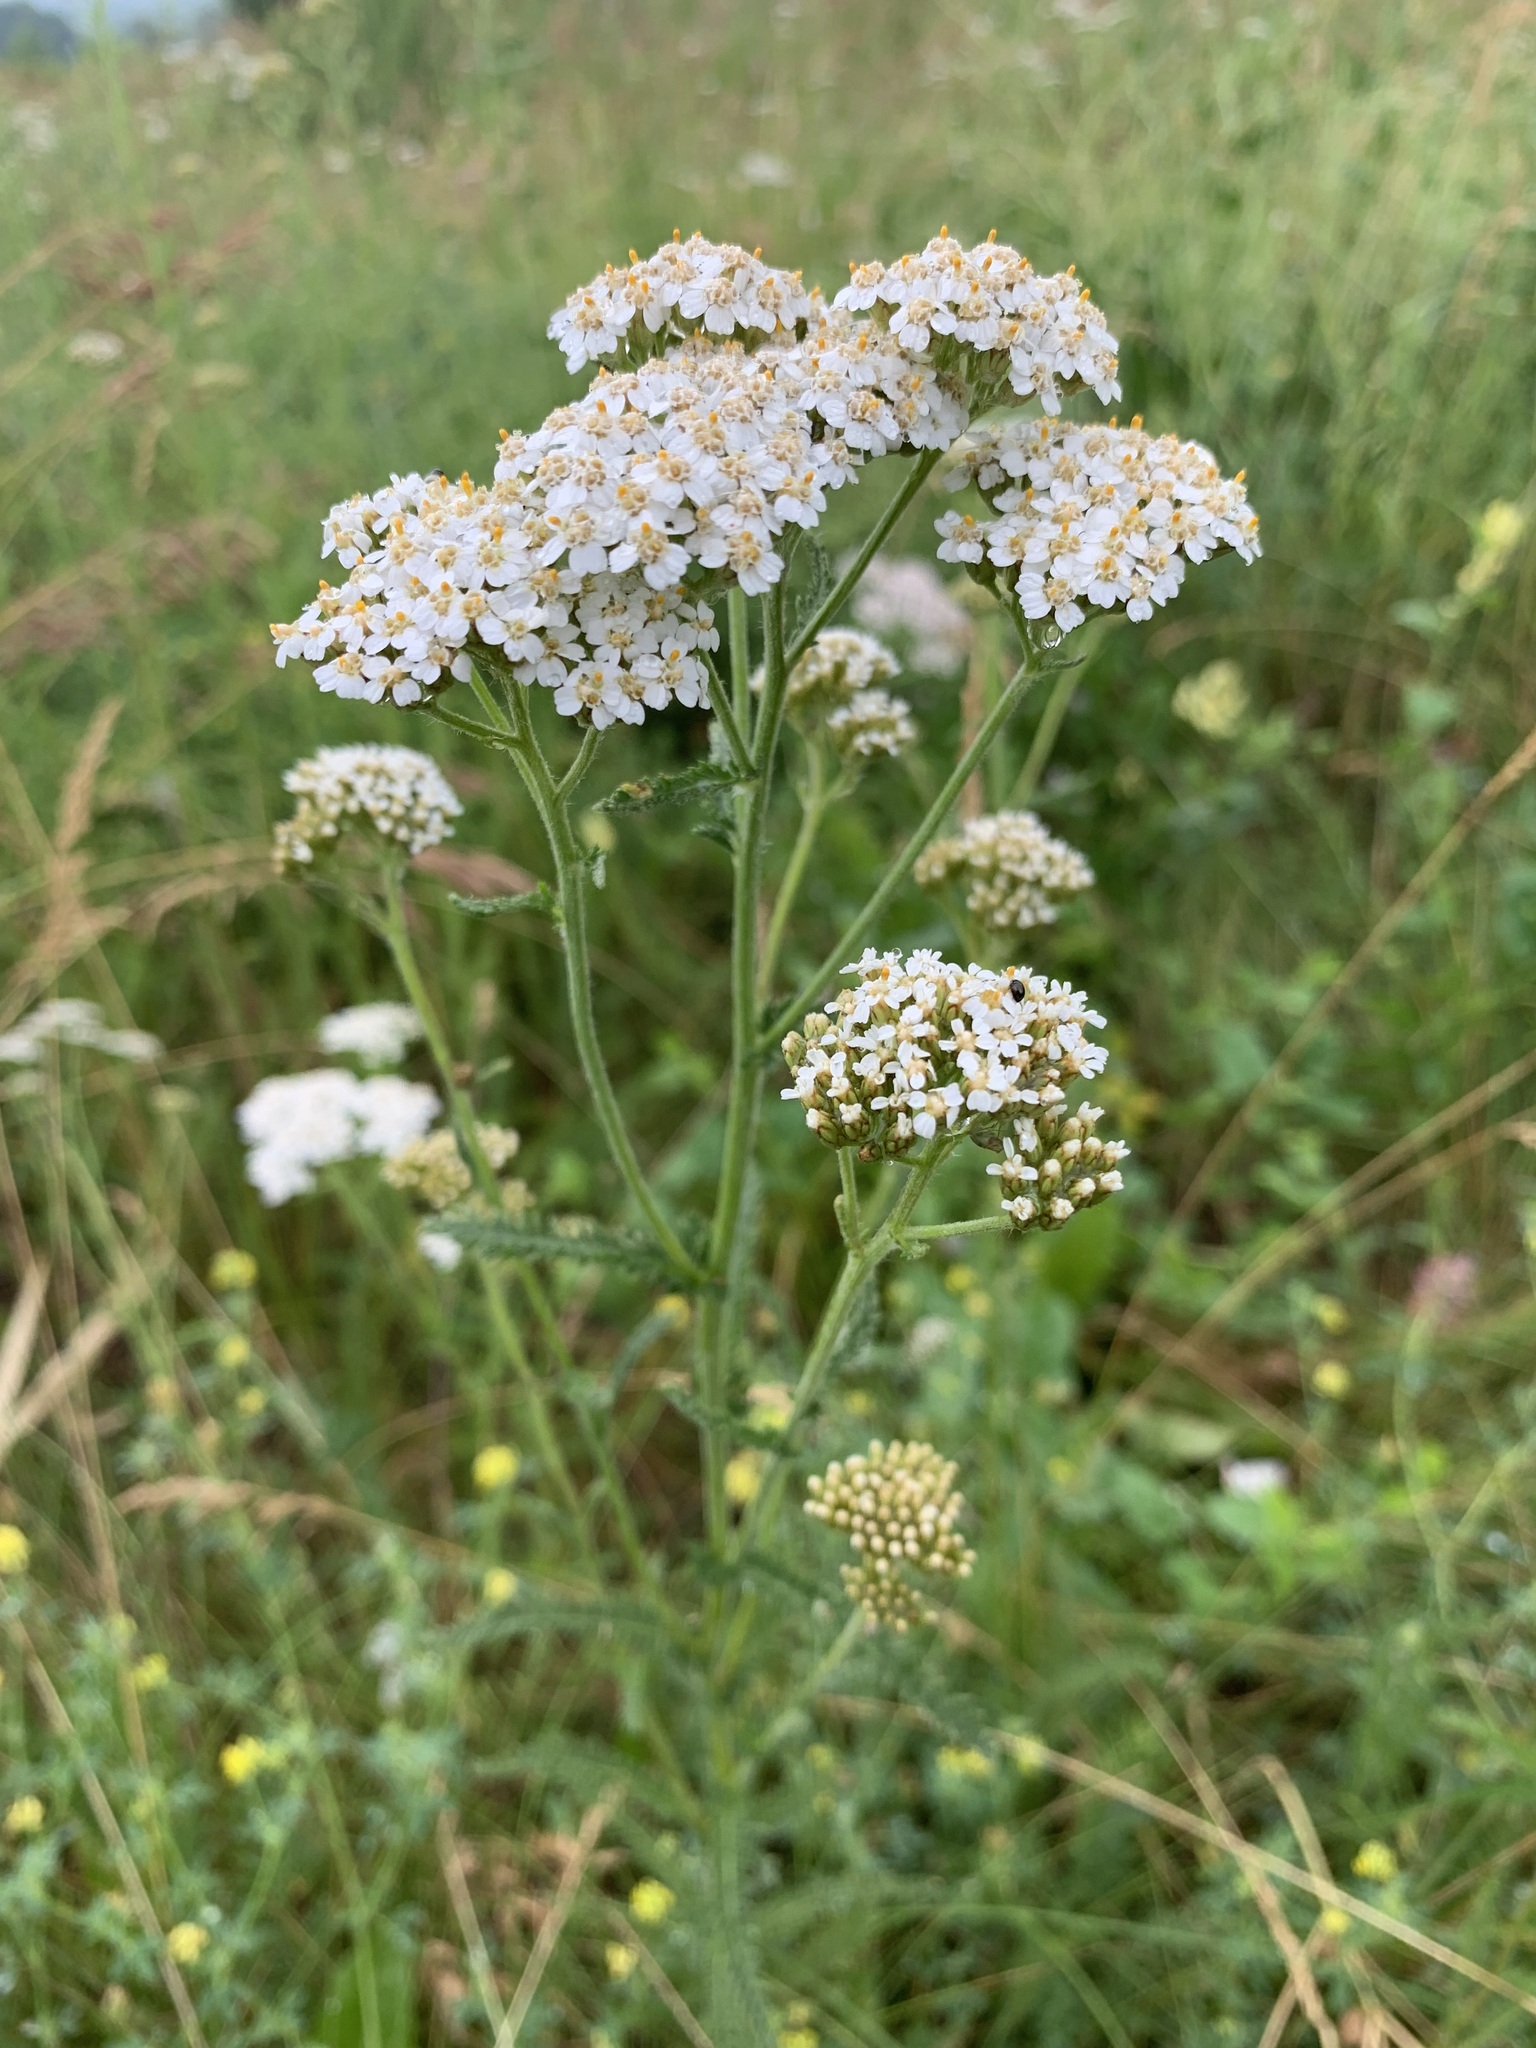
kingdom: Plantae
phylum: Tracheophyta
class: Magnoliopsida
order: Asterales
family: Asteraceae
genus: Achillea
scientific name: Achillea millefolium
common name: Yarrow
